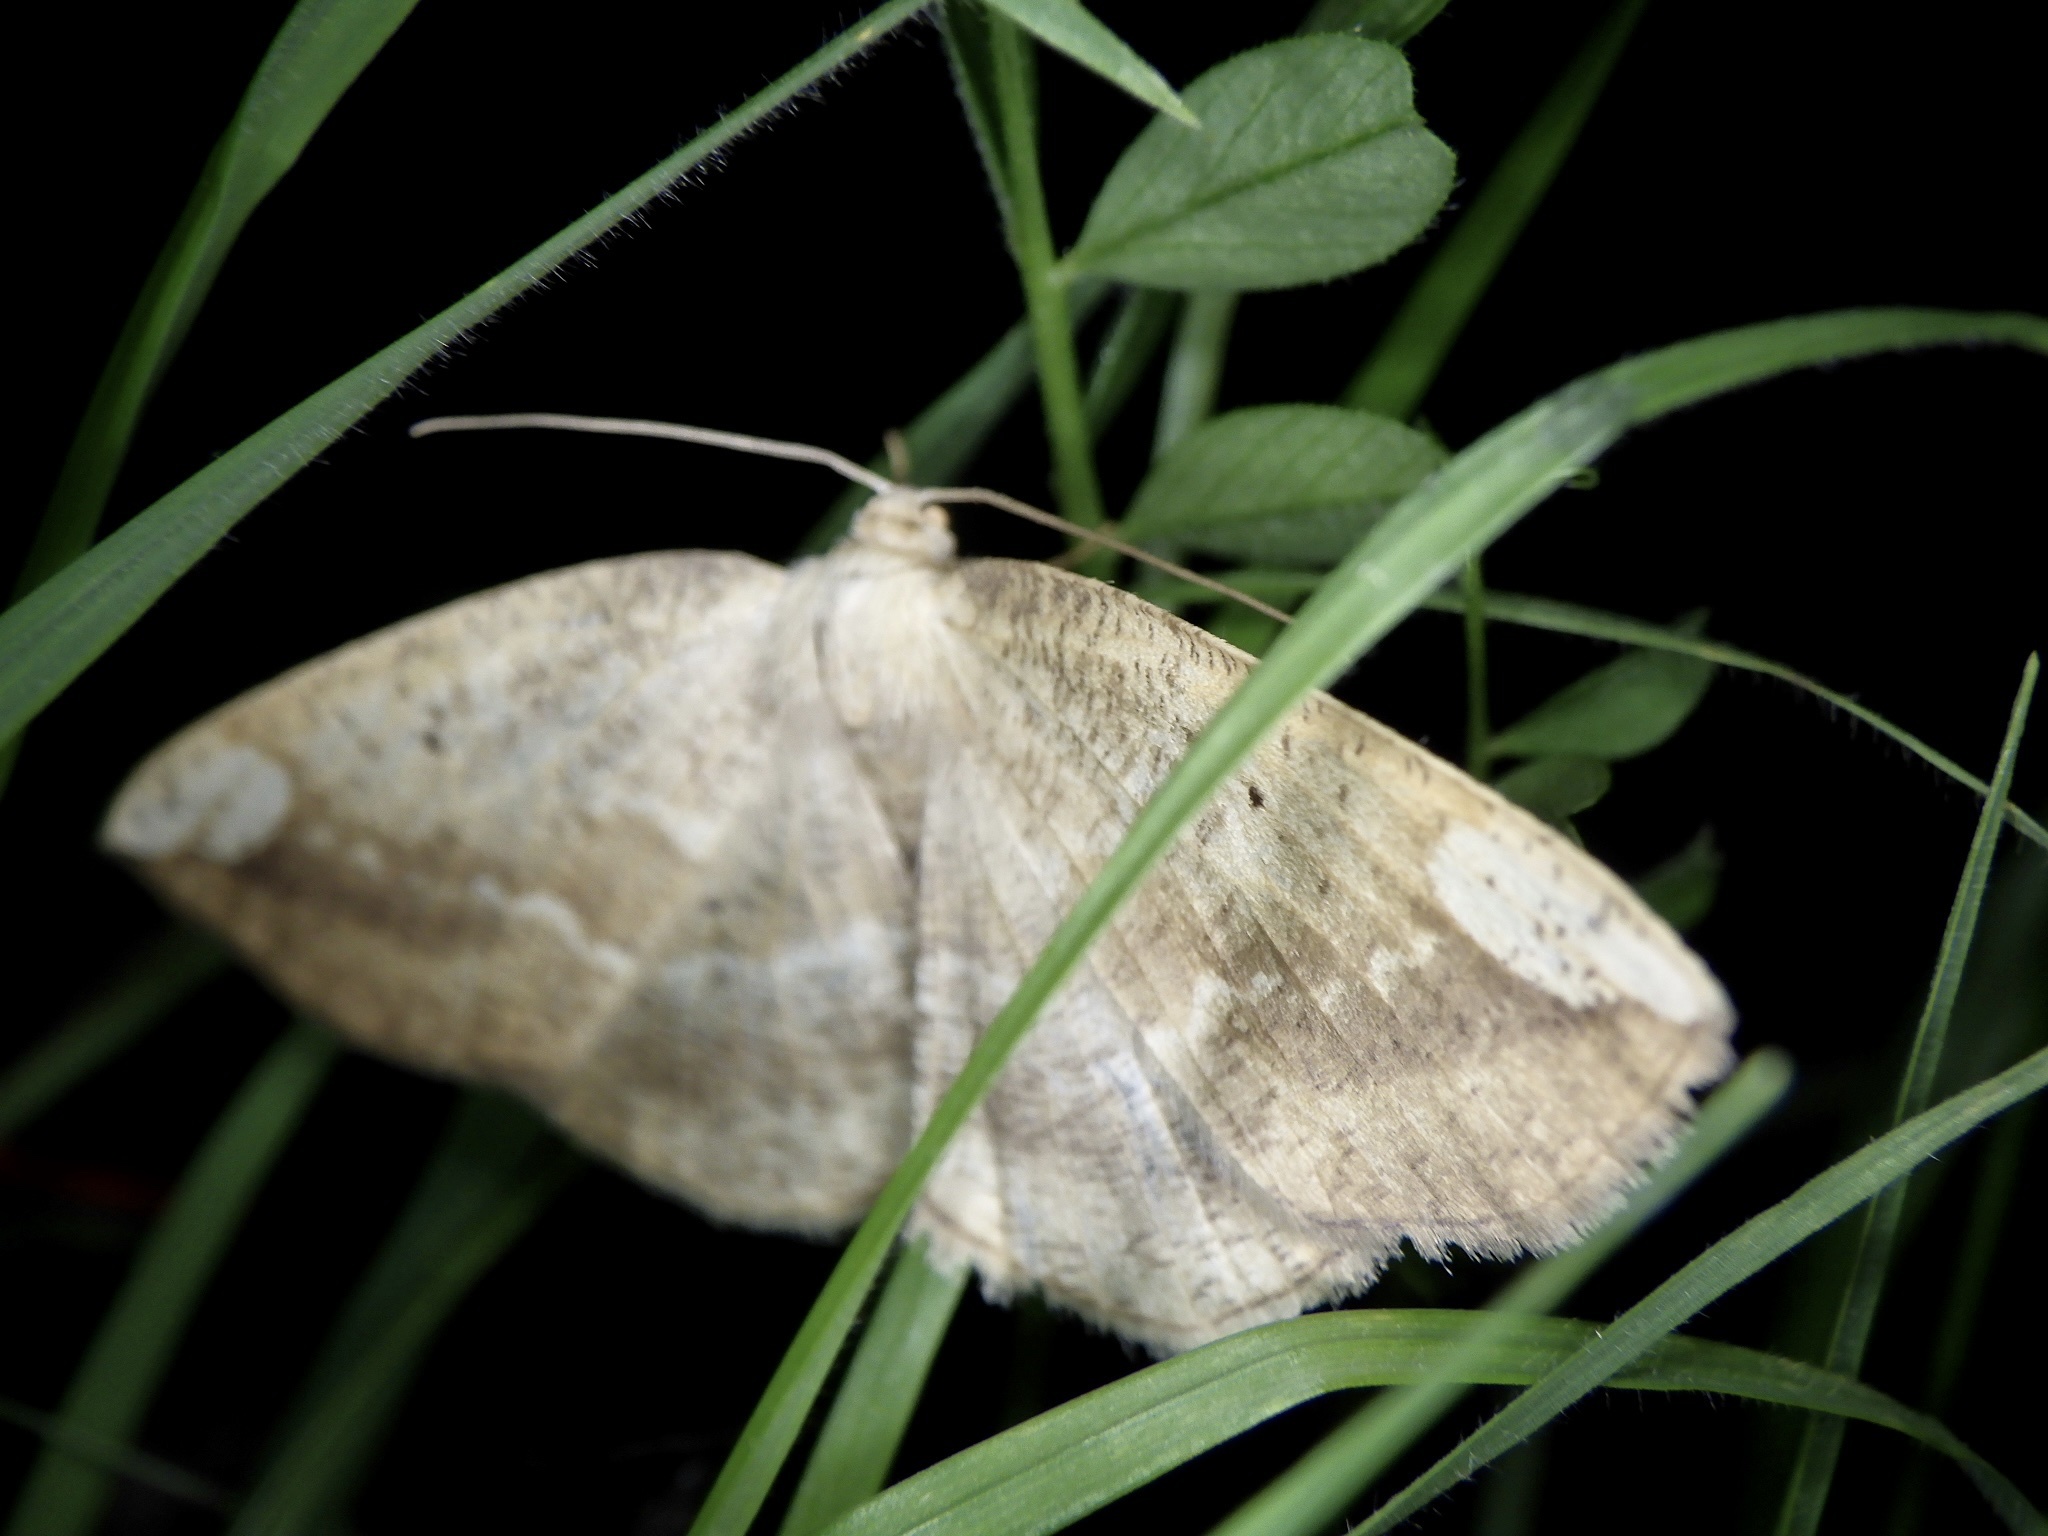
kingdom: Animalia
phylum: Arthropoda
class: Insecta
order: Lepidoptera
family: Geometridae
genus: Platycerota
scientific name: Platycerota incertaria
